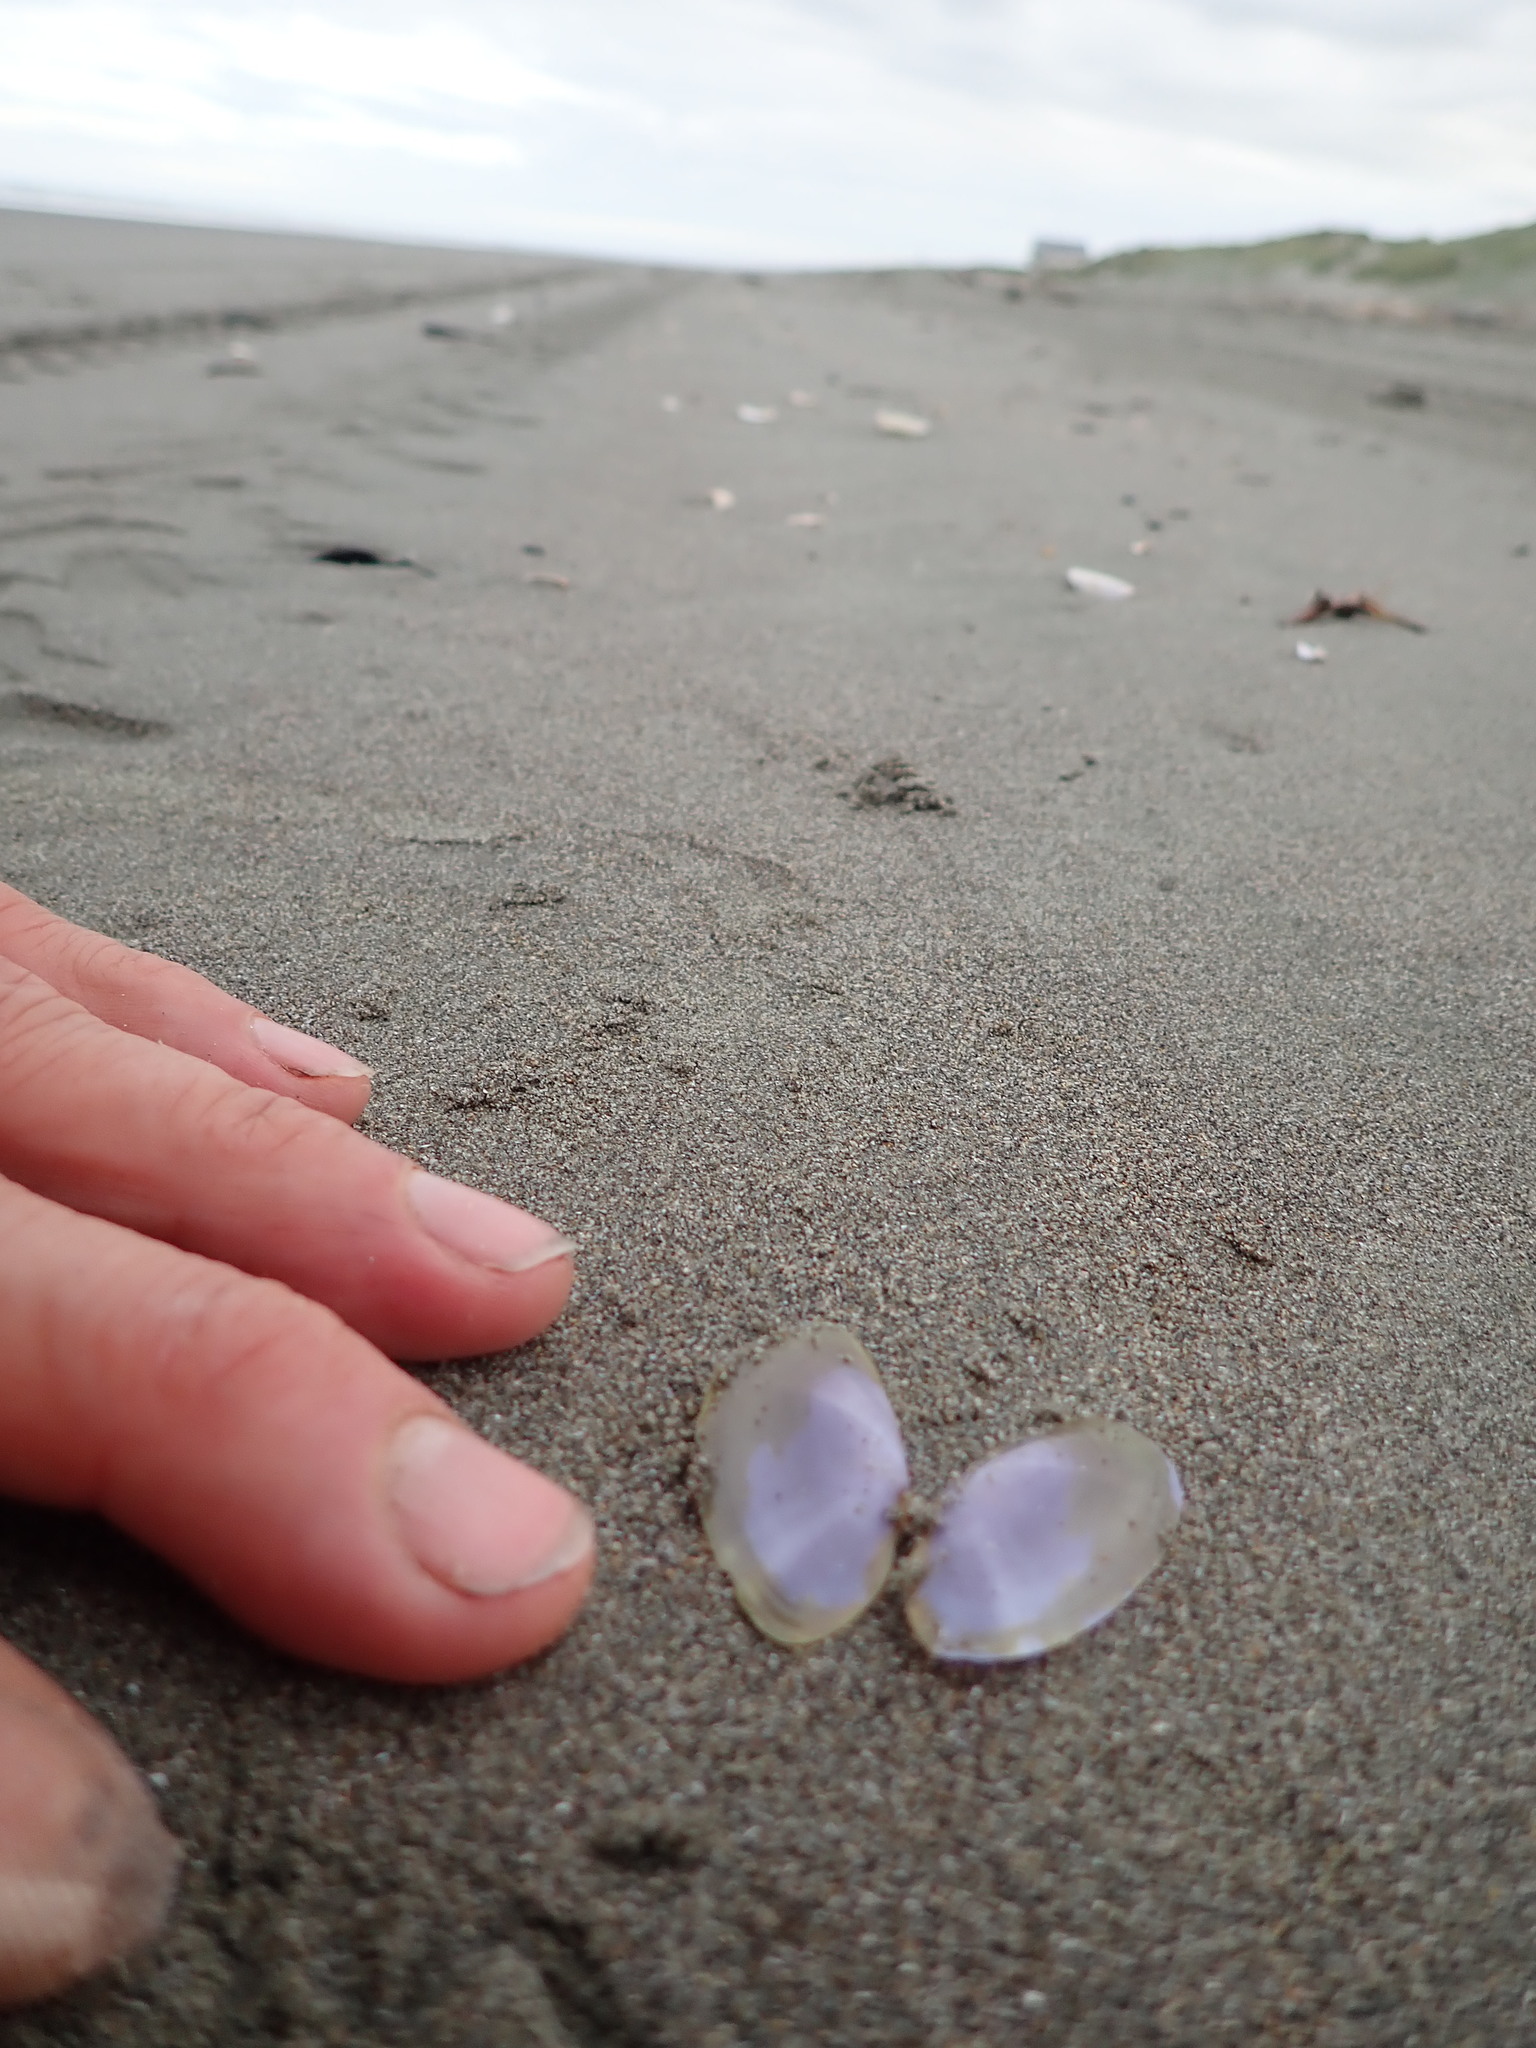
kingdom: Animalia
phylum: Mollusca
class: Bivalvia
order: Cardiida
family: Psammobiidae
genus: Hiatula
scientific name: Hiatula nitida
